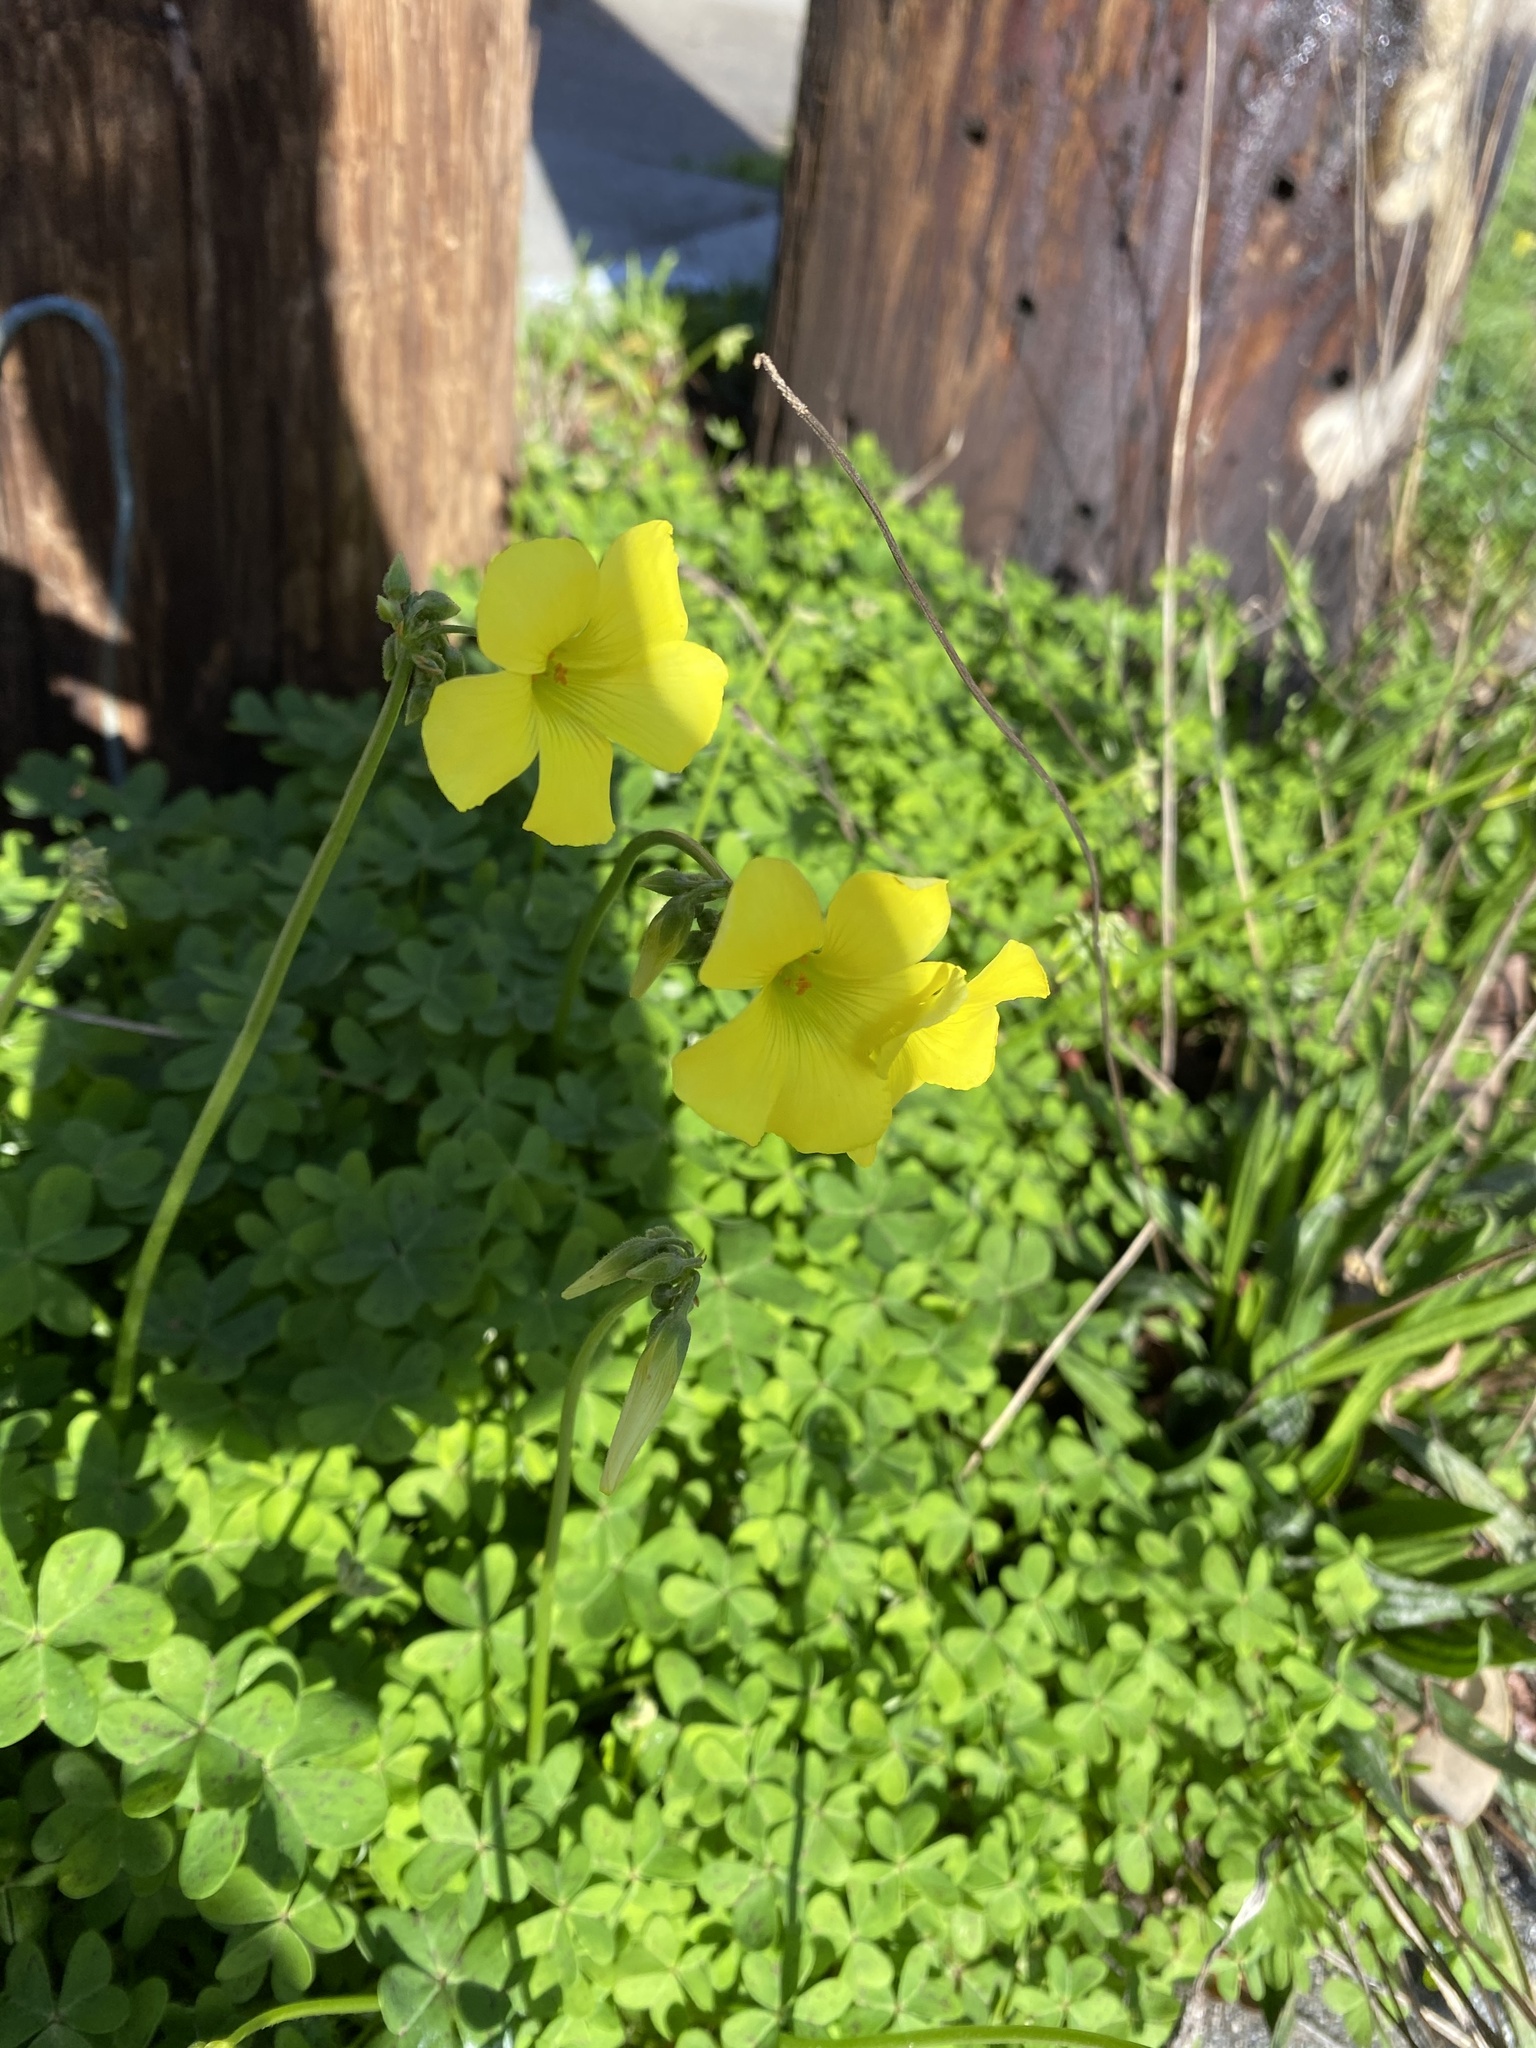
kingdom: Plantae
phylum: Tracheophyta
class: Magnoliopsida
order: Oxalidales
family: Oxalidaceae
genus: Oxalis
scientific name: Oxalis pes-caprae
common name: Bermuda-buttercup
